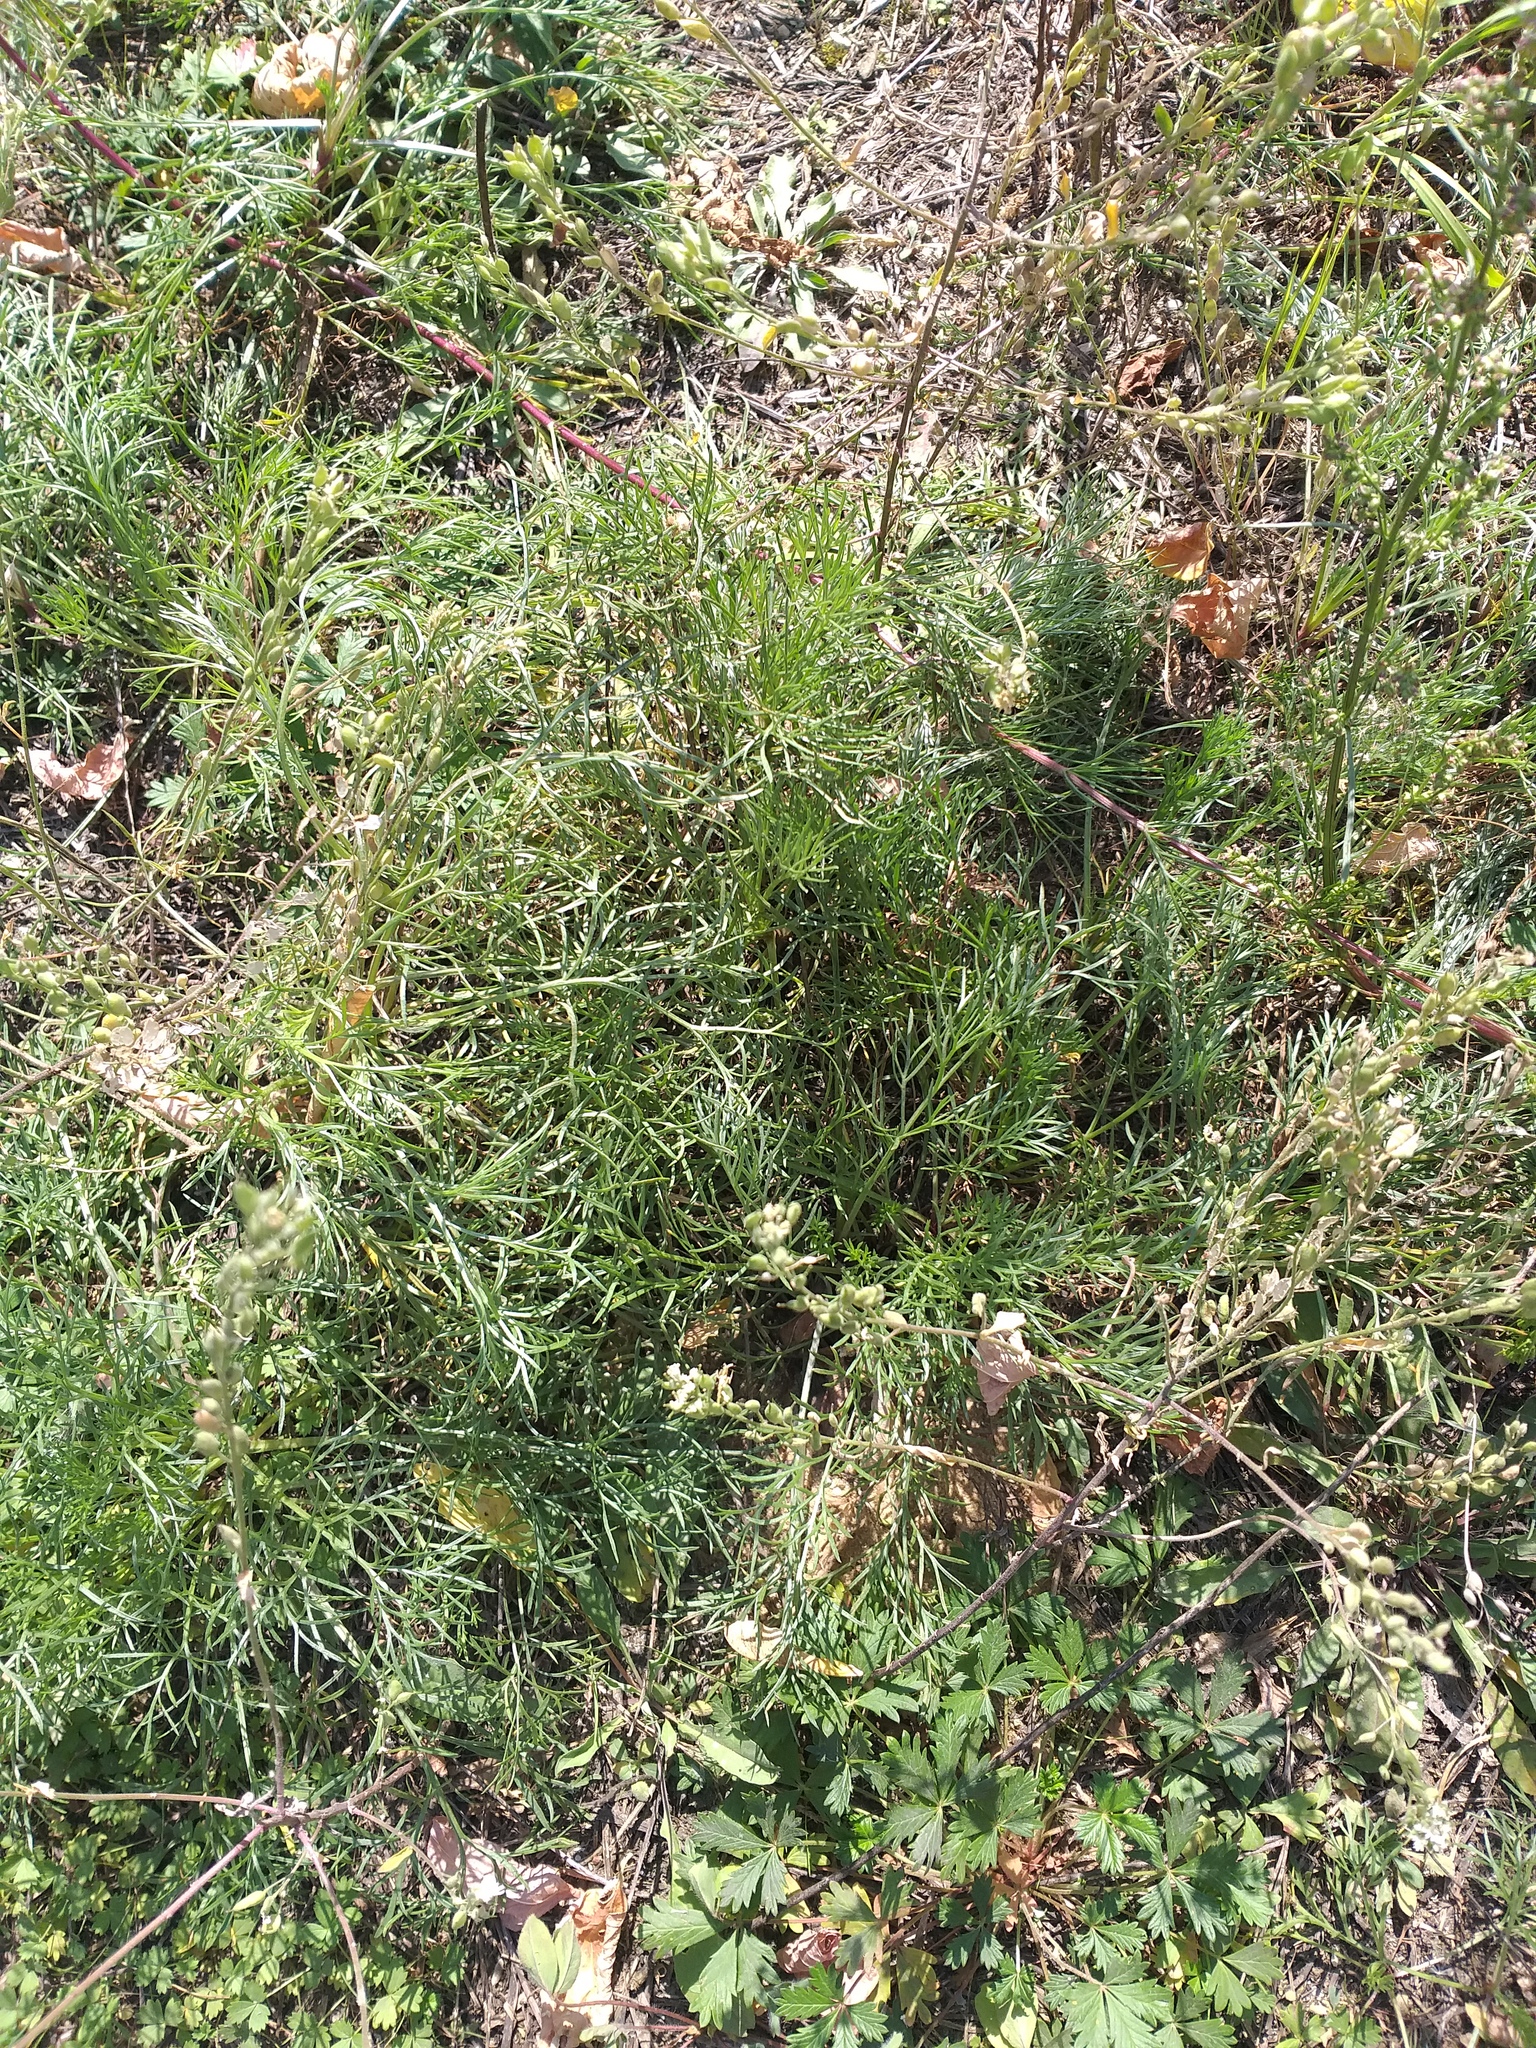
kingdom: Plantae
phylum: Tracheophyta
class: Magnoliopsida
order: Asterales
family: Asteraceae
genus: Artemisia
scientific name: Artemisia campestris
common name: Field wormwood
